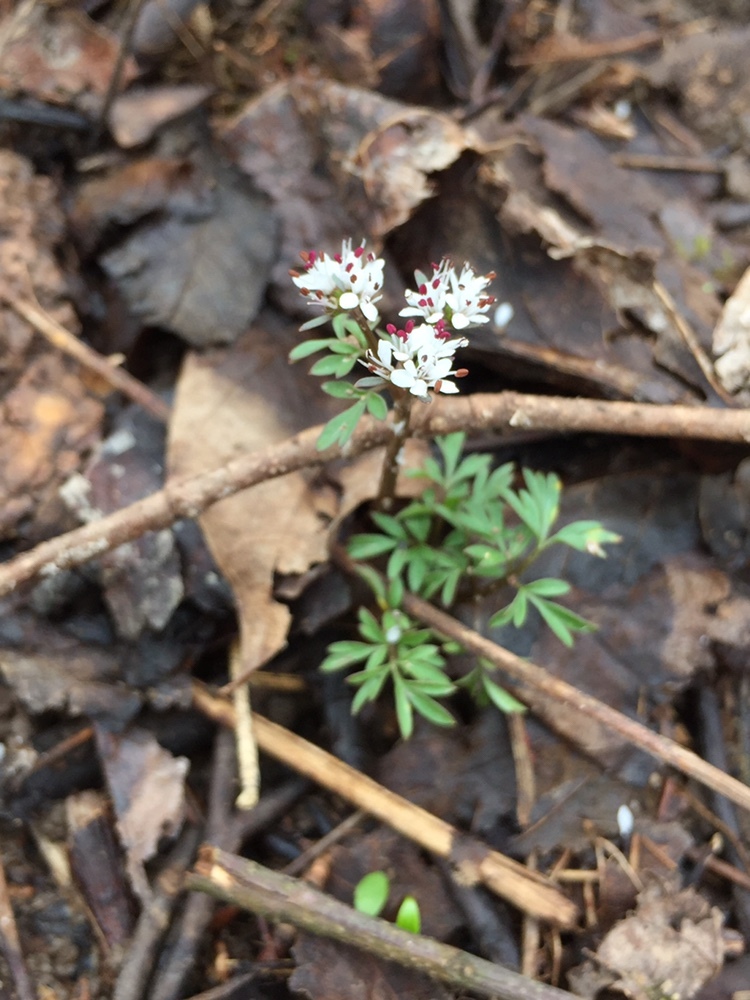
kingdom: Plantae
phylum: Tracheophyta
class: Magnoliopsida
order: Apiales
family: Apiaceae
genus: Erigenia
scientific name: Erigenia bulbosa
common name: Pepper-and-salt
